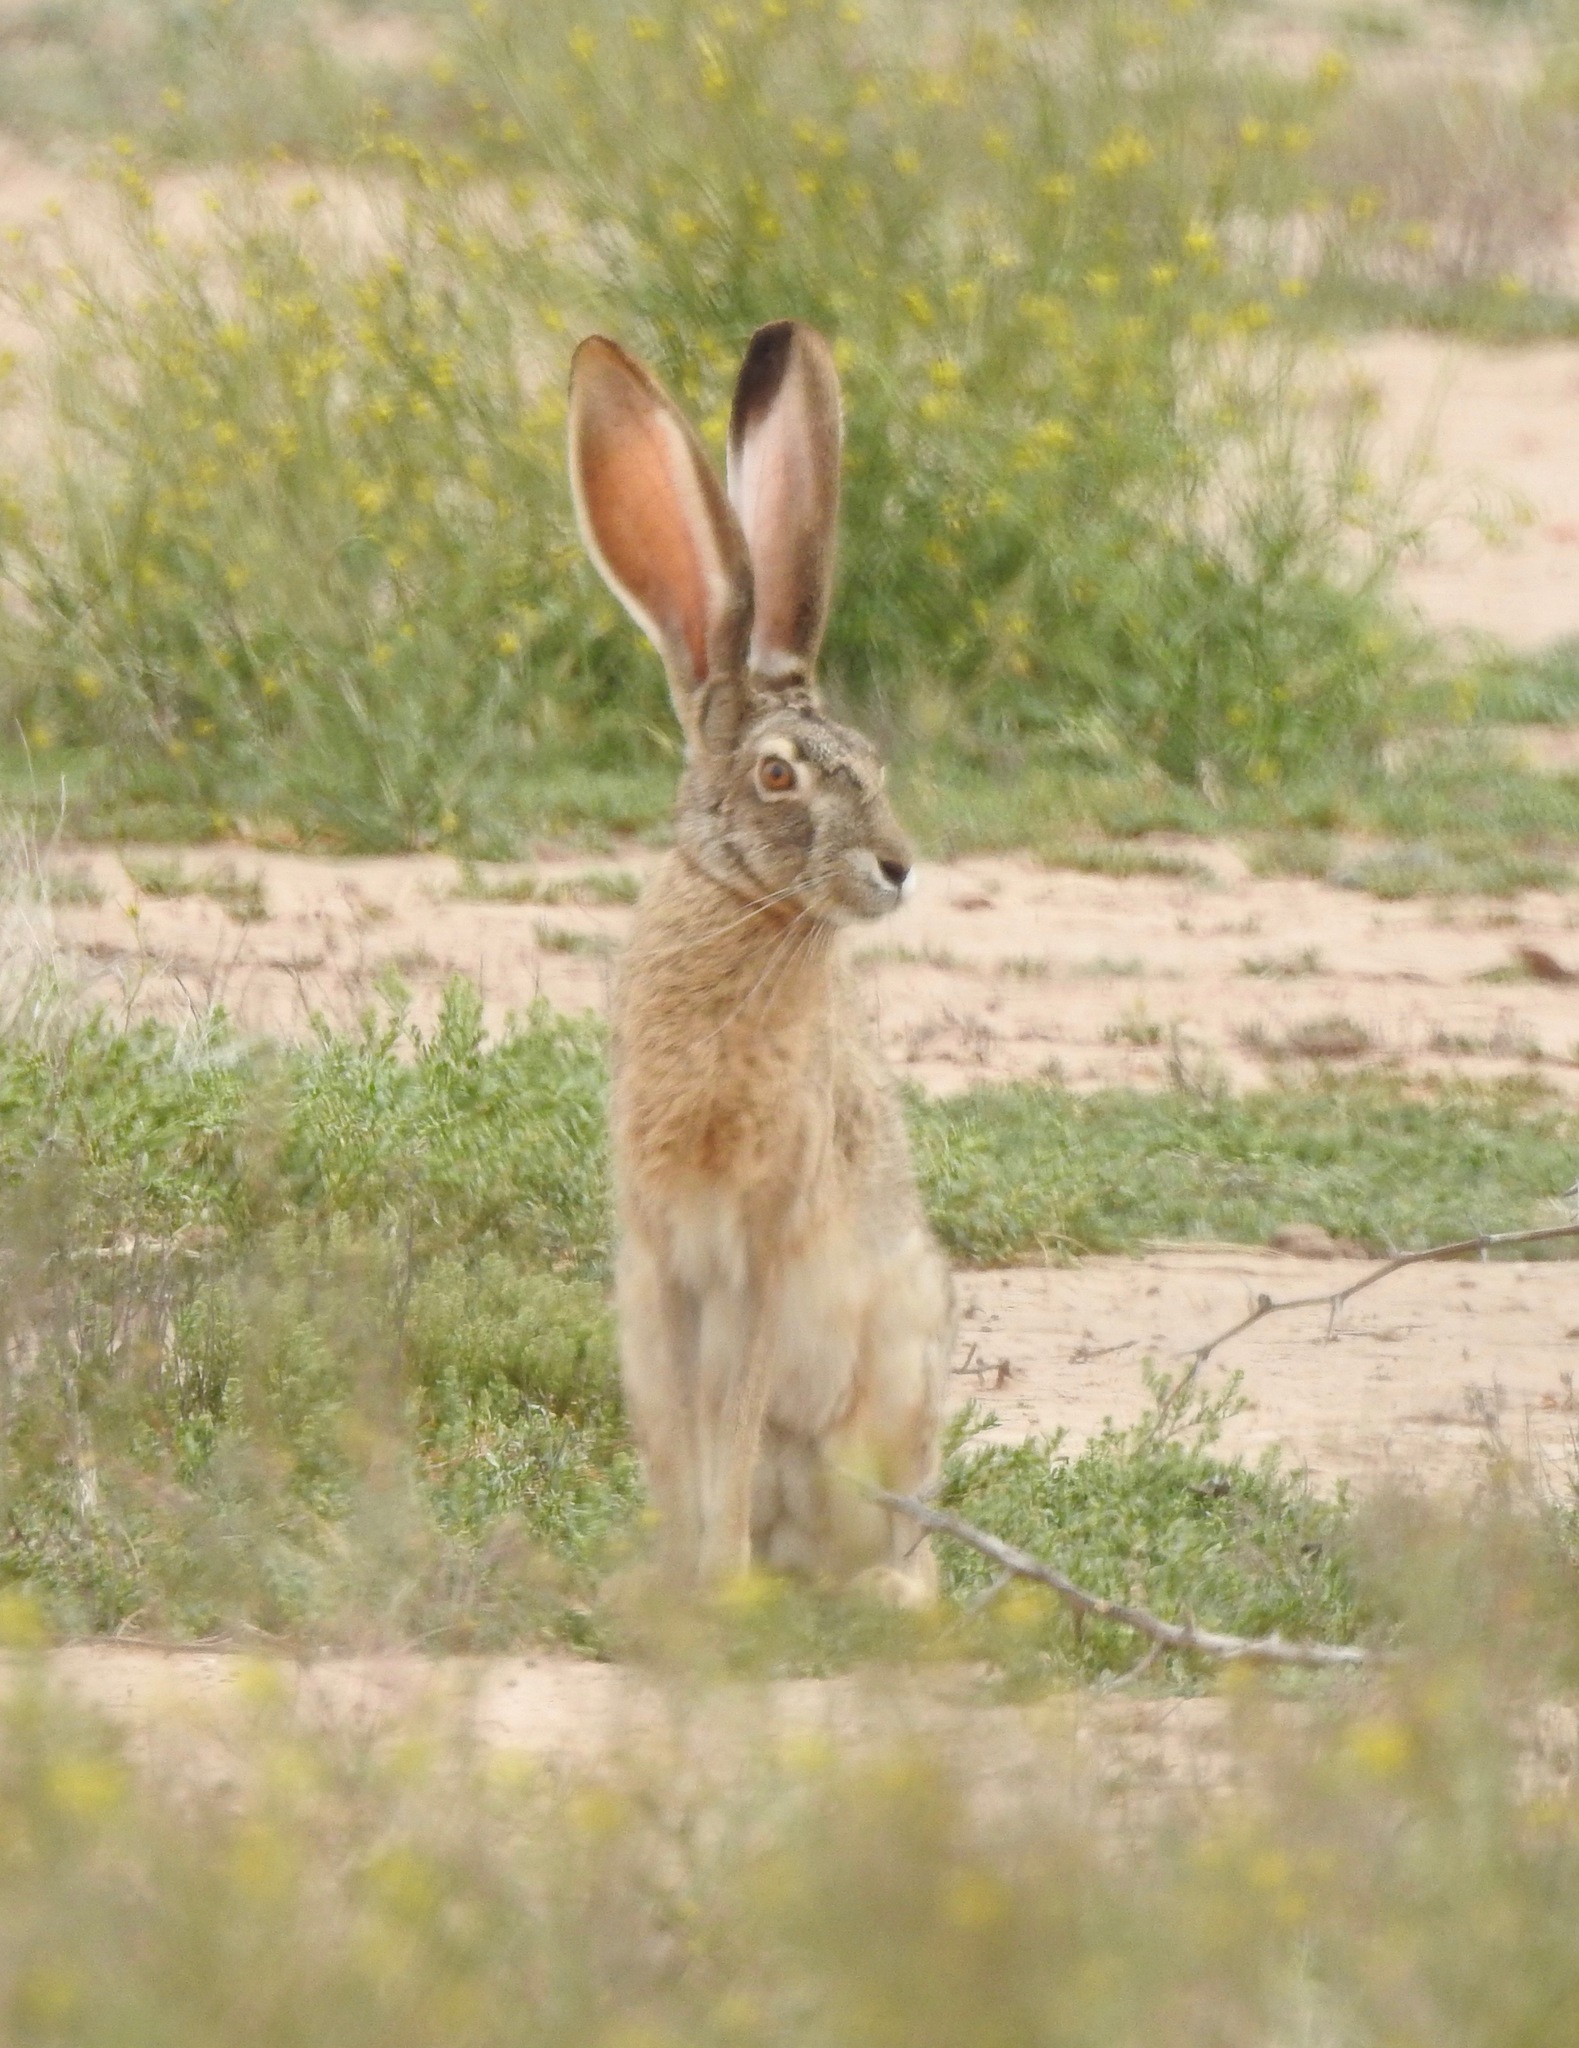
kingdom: Animalia
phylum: Chordata
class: Mammalia
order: Lagomorpha
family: Leporidae
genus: Lepus
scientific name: Lepus californicus
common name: Black-tailed jackrabbit
